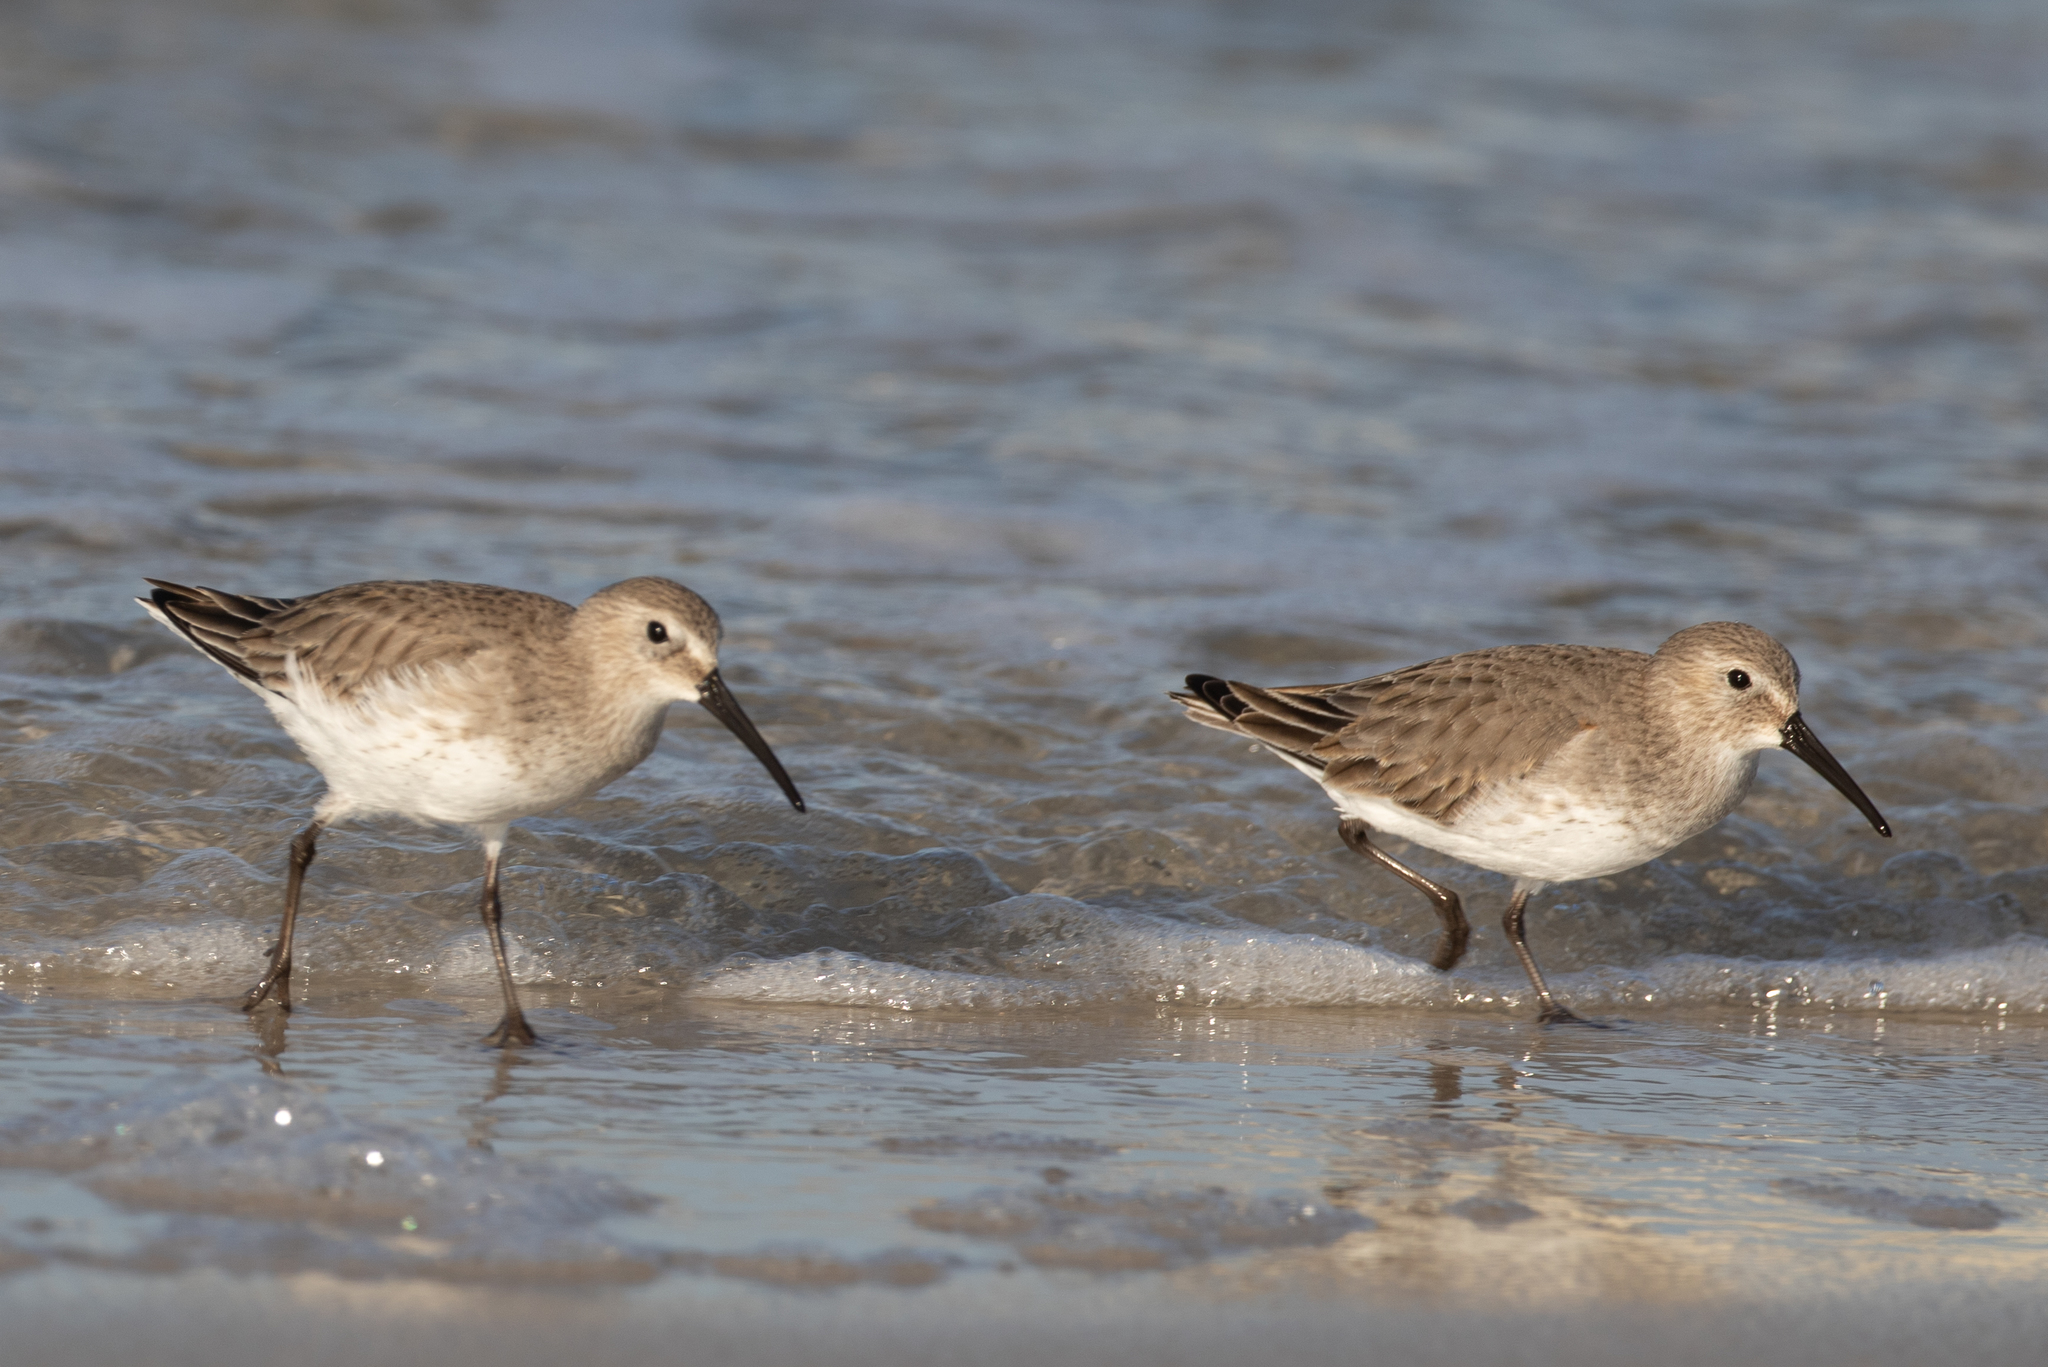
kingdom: Animalia
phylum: Chordata
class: Aves
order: Charadriiformes
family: Scolopacidae
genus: Calidris
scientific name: Calidris alpina
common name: Dunlin
